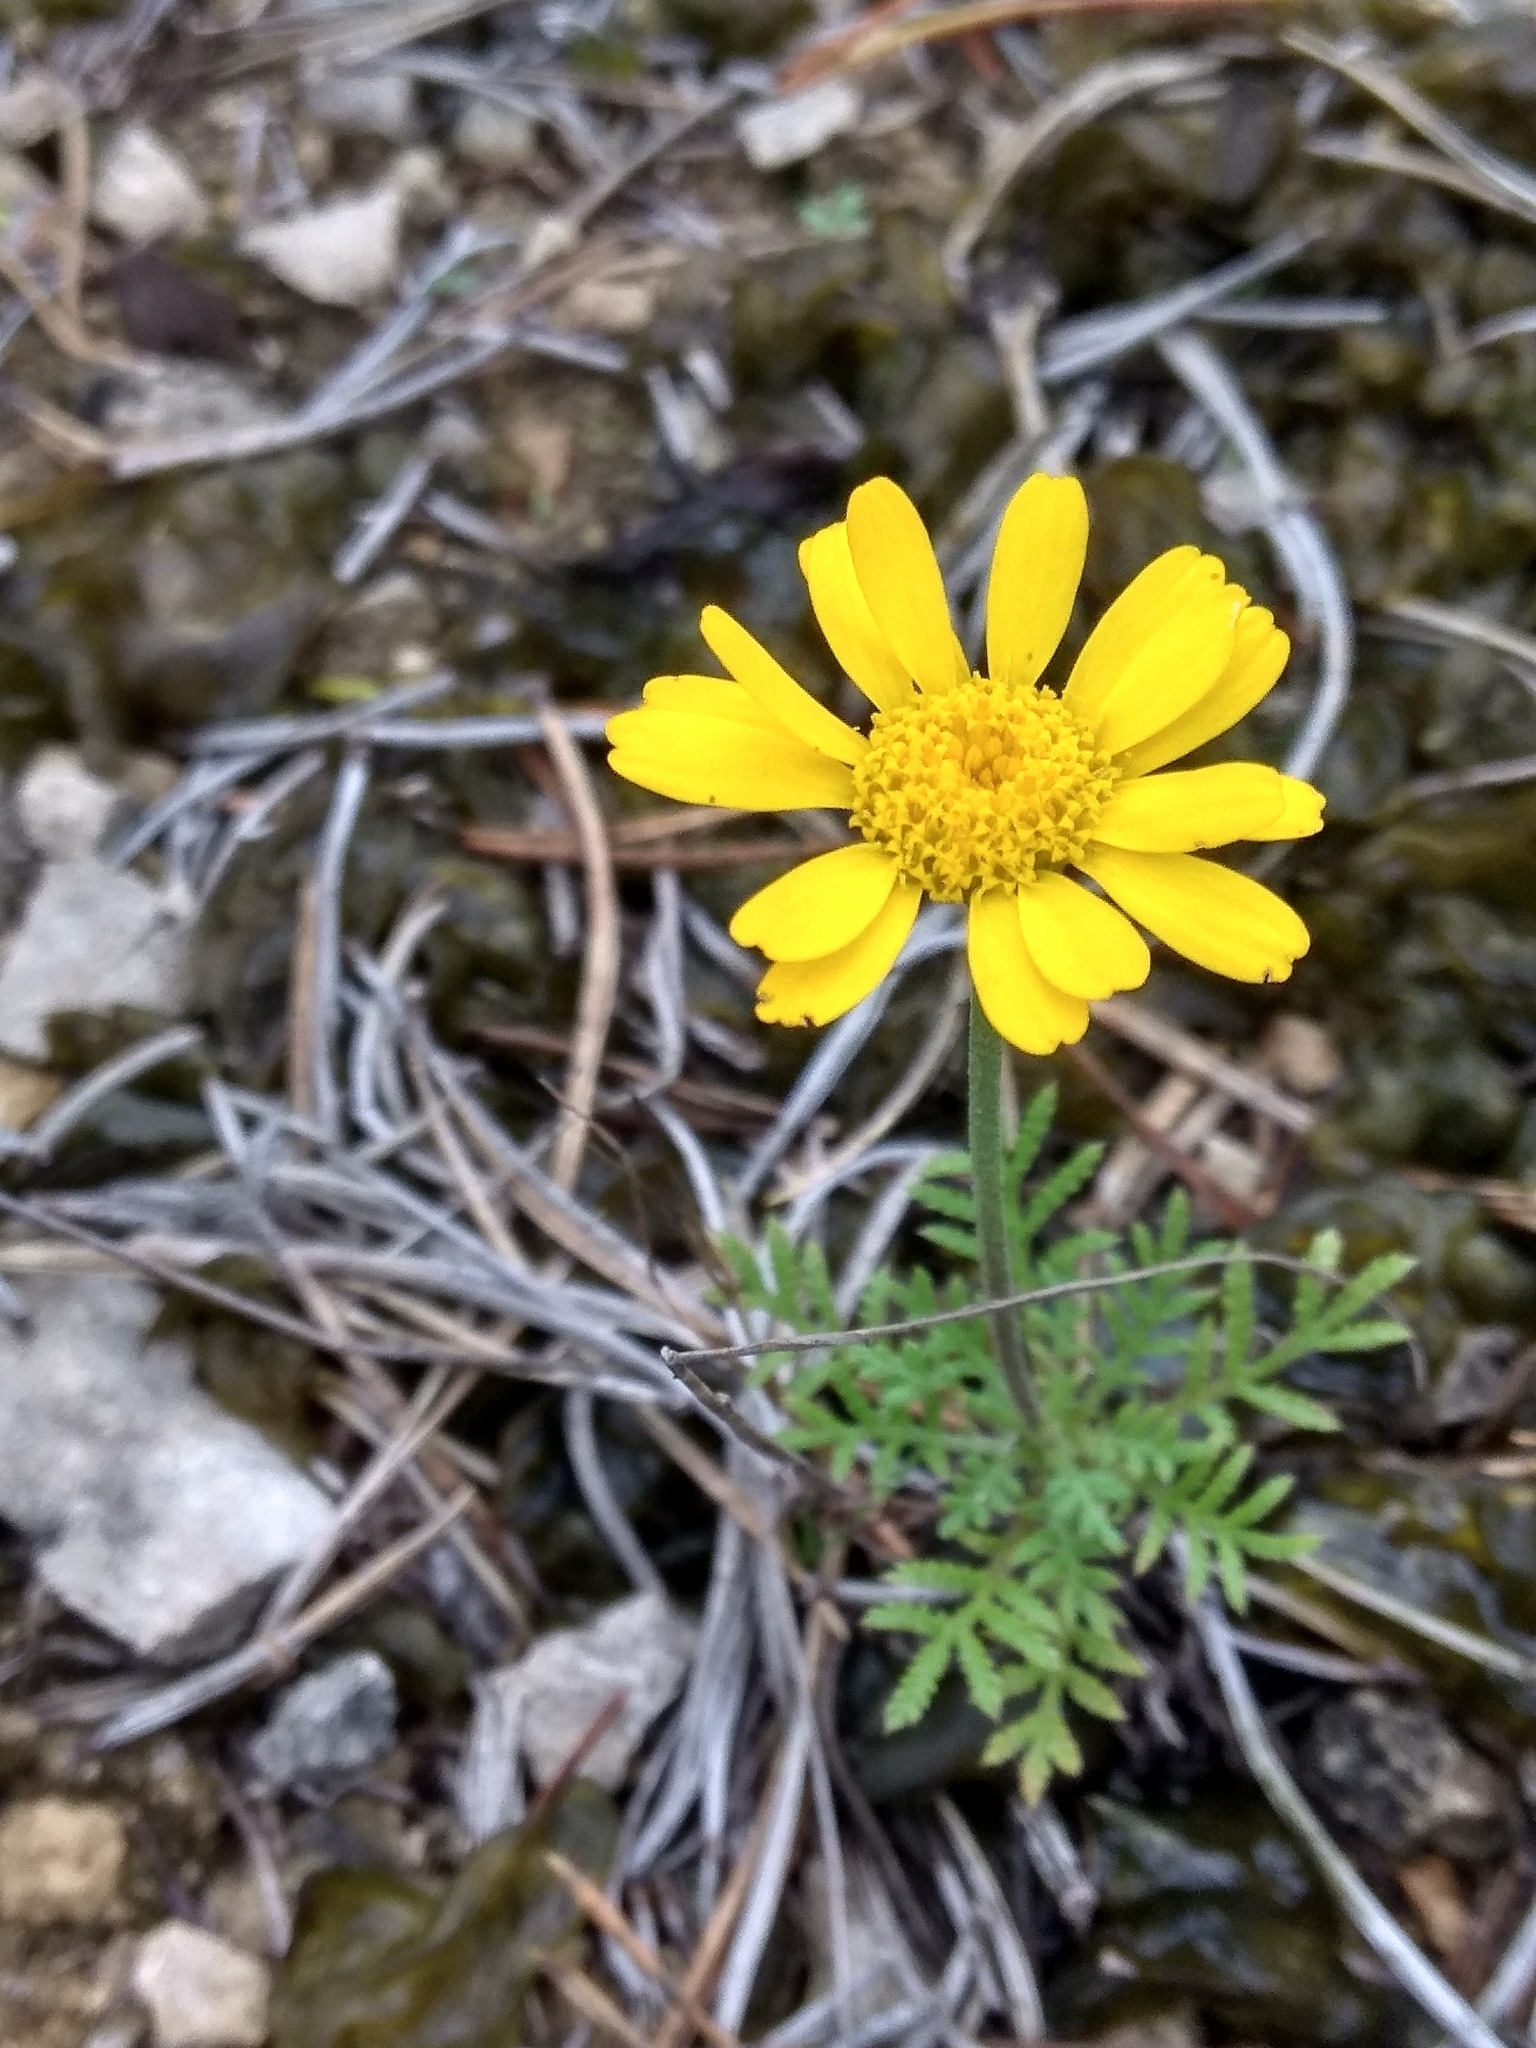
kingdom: Plantae
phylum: Tracheophyta
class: Magnoliopsida
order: Asterales
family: Asteraceae
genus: Cota
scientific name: Cota tinctoria
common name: Golden chamomile
